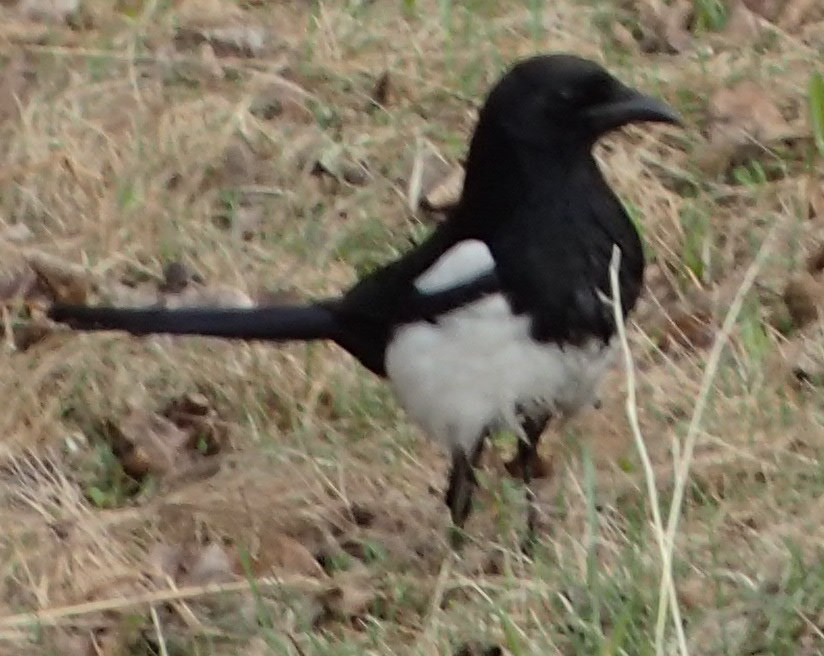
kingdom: Animalia
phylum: Chordata
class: Aves
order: Passeriformes
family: Corvidae
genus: Pica
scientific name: Pica hudsonia
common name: Black-billed magpie
